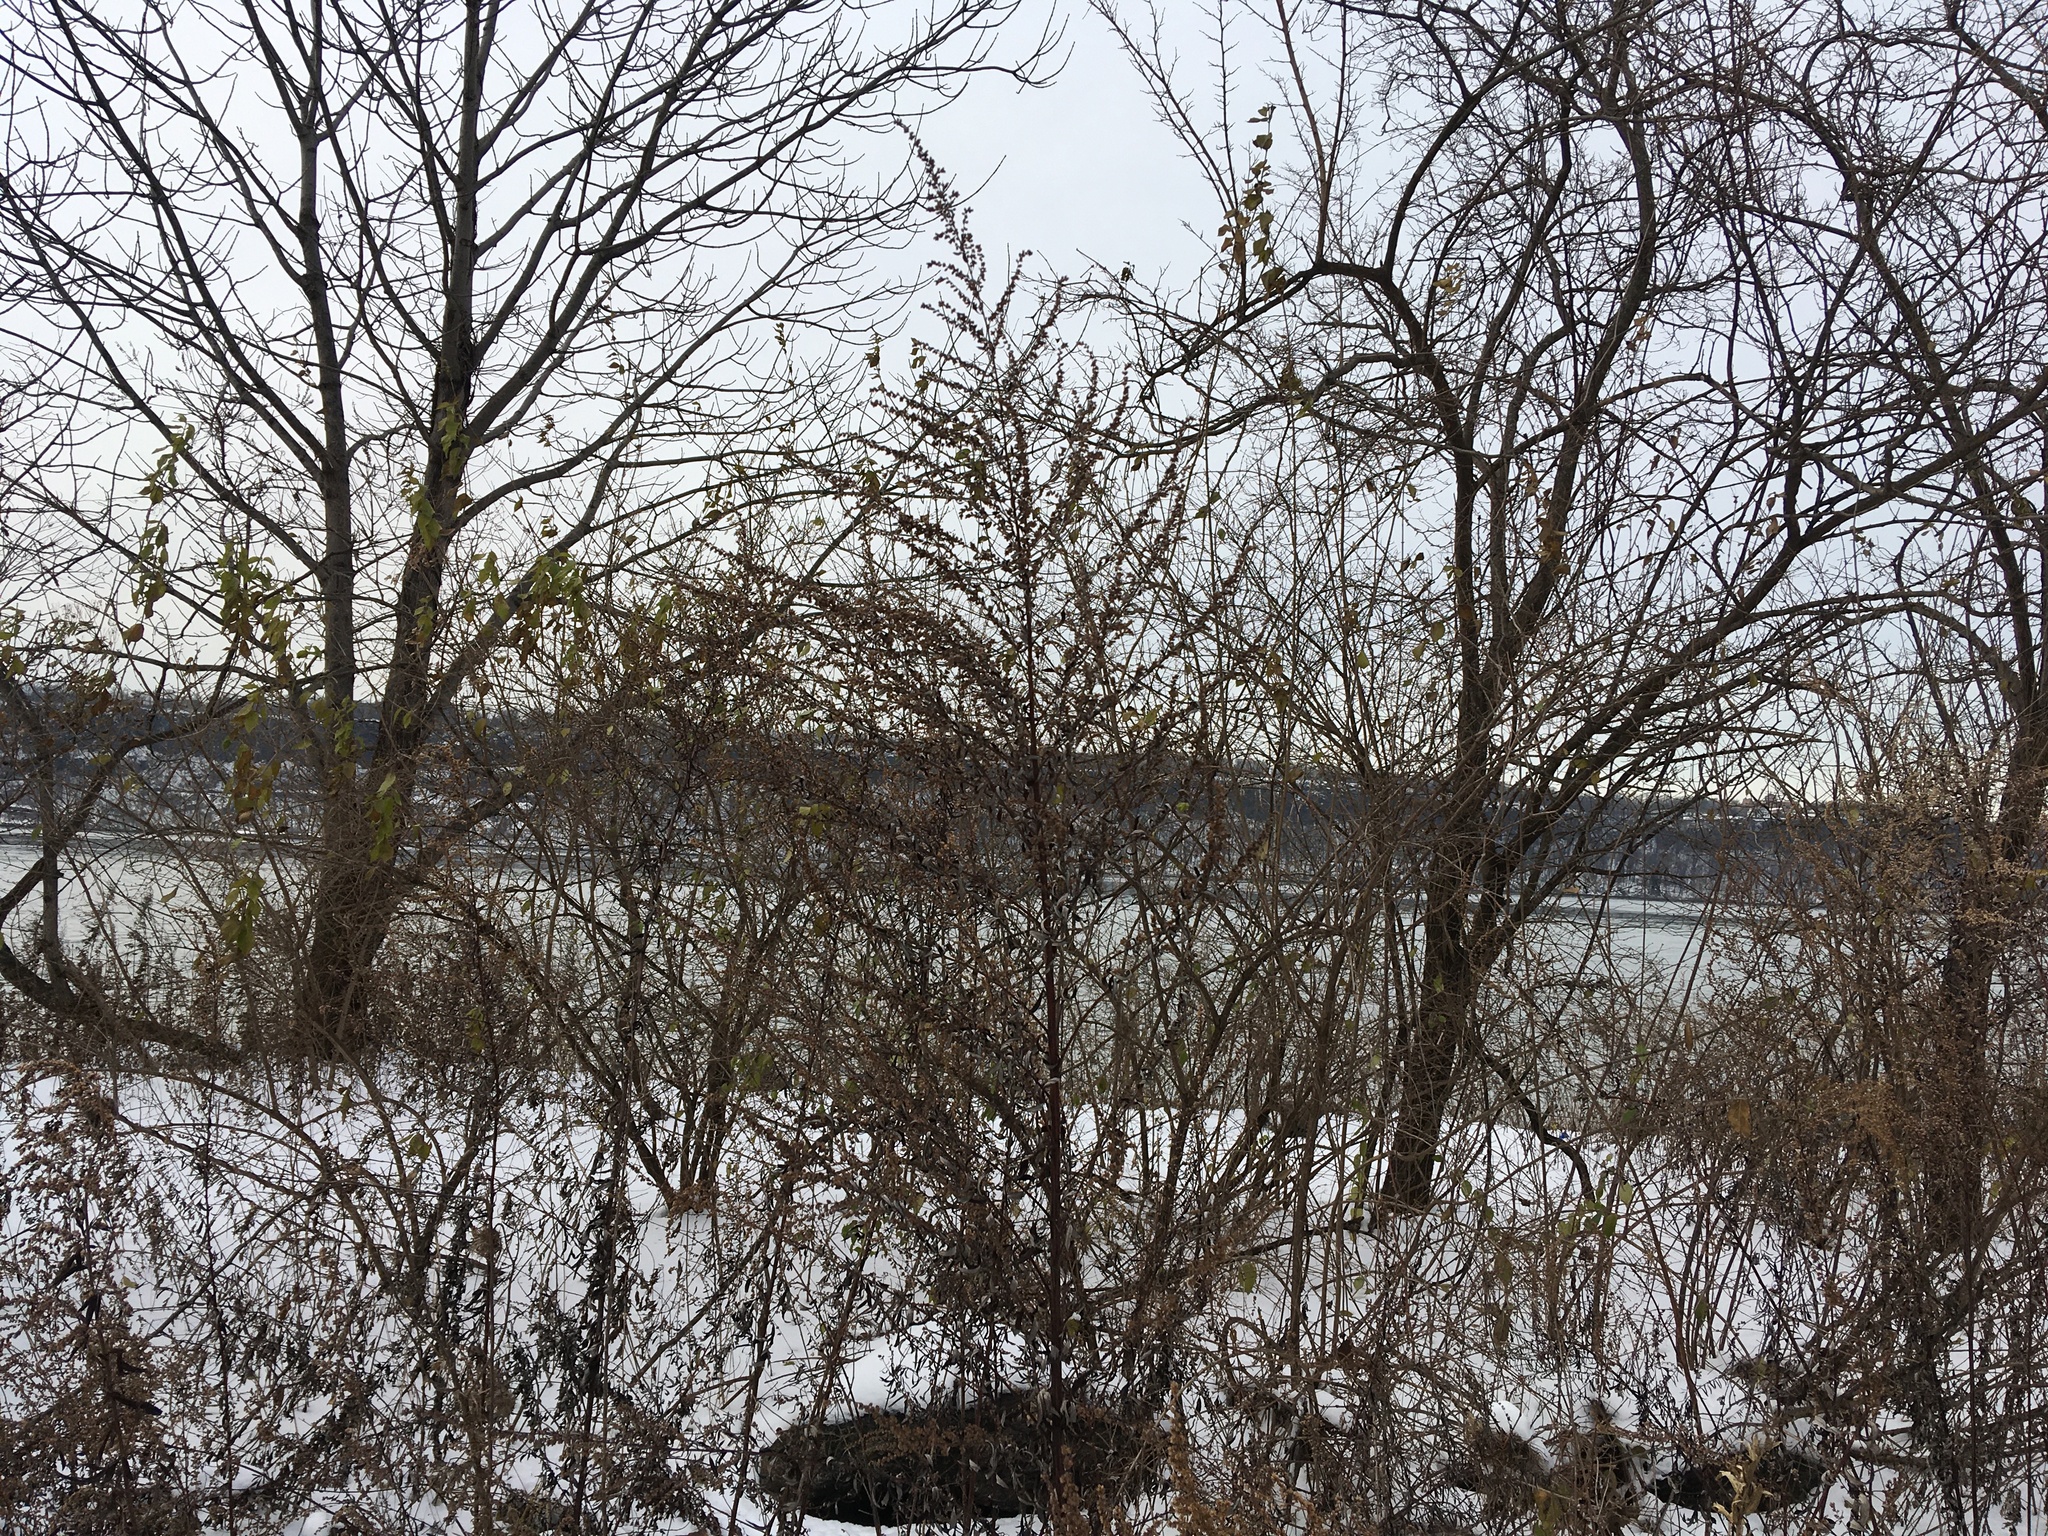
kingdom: Plantae
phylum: Tracheophyta
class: Magnoliopsida
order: Asterales
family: Asteraceae
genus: Artemisia
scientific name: Artemisia vulgaris
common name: Mugwort
